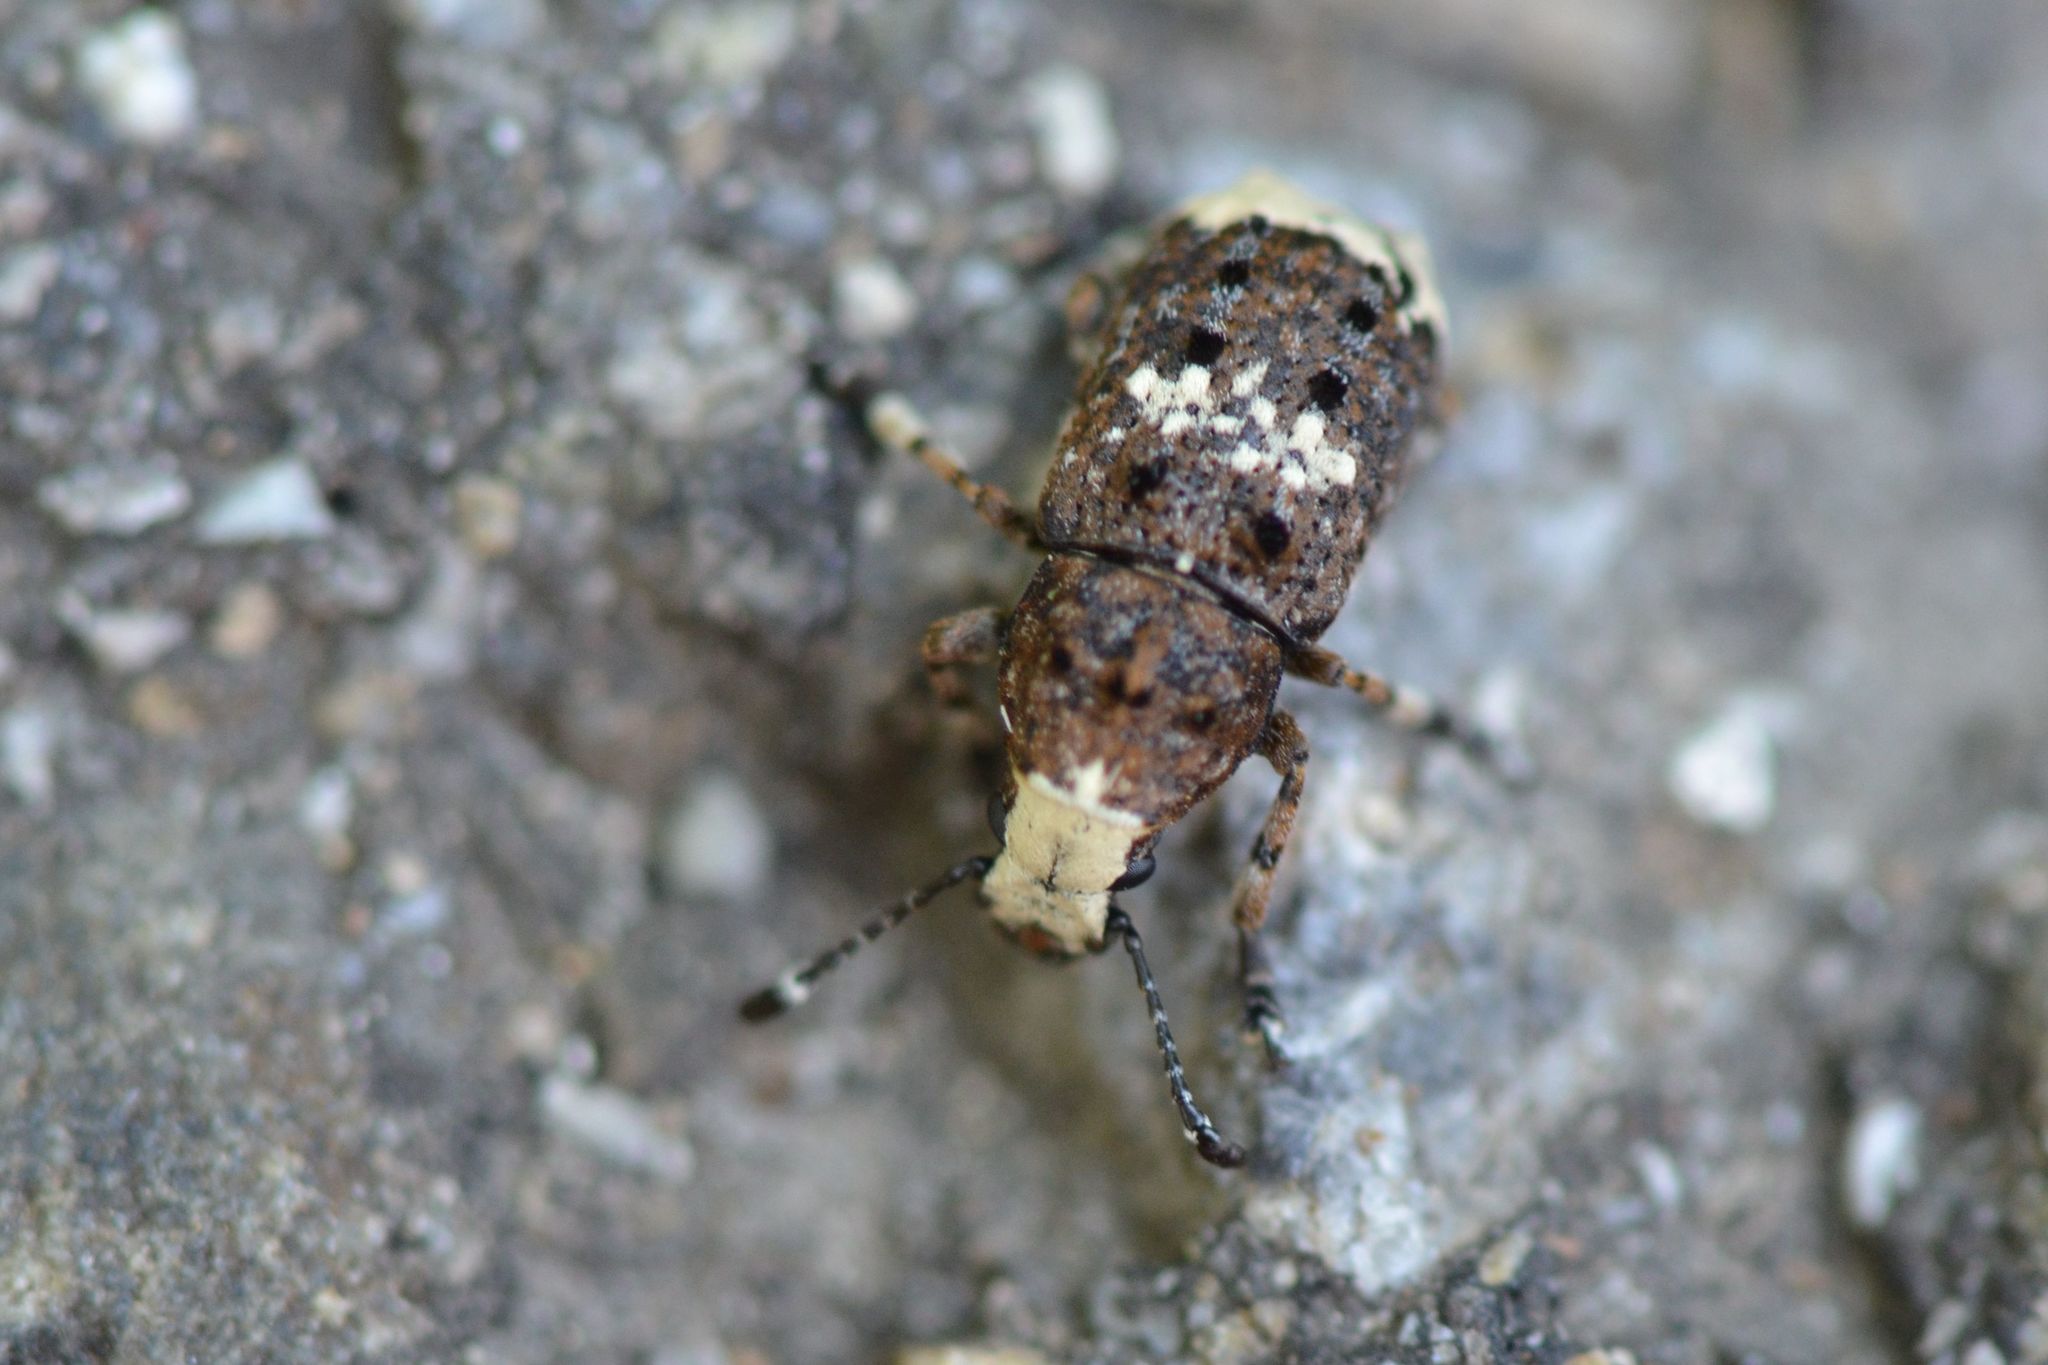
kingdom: Animalia
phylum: Arthropoda
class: Insecta
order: Coleoptera
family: Anthribidae
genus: Platystomos
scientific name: Platystomos albinus
